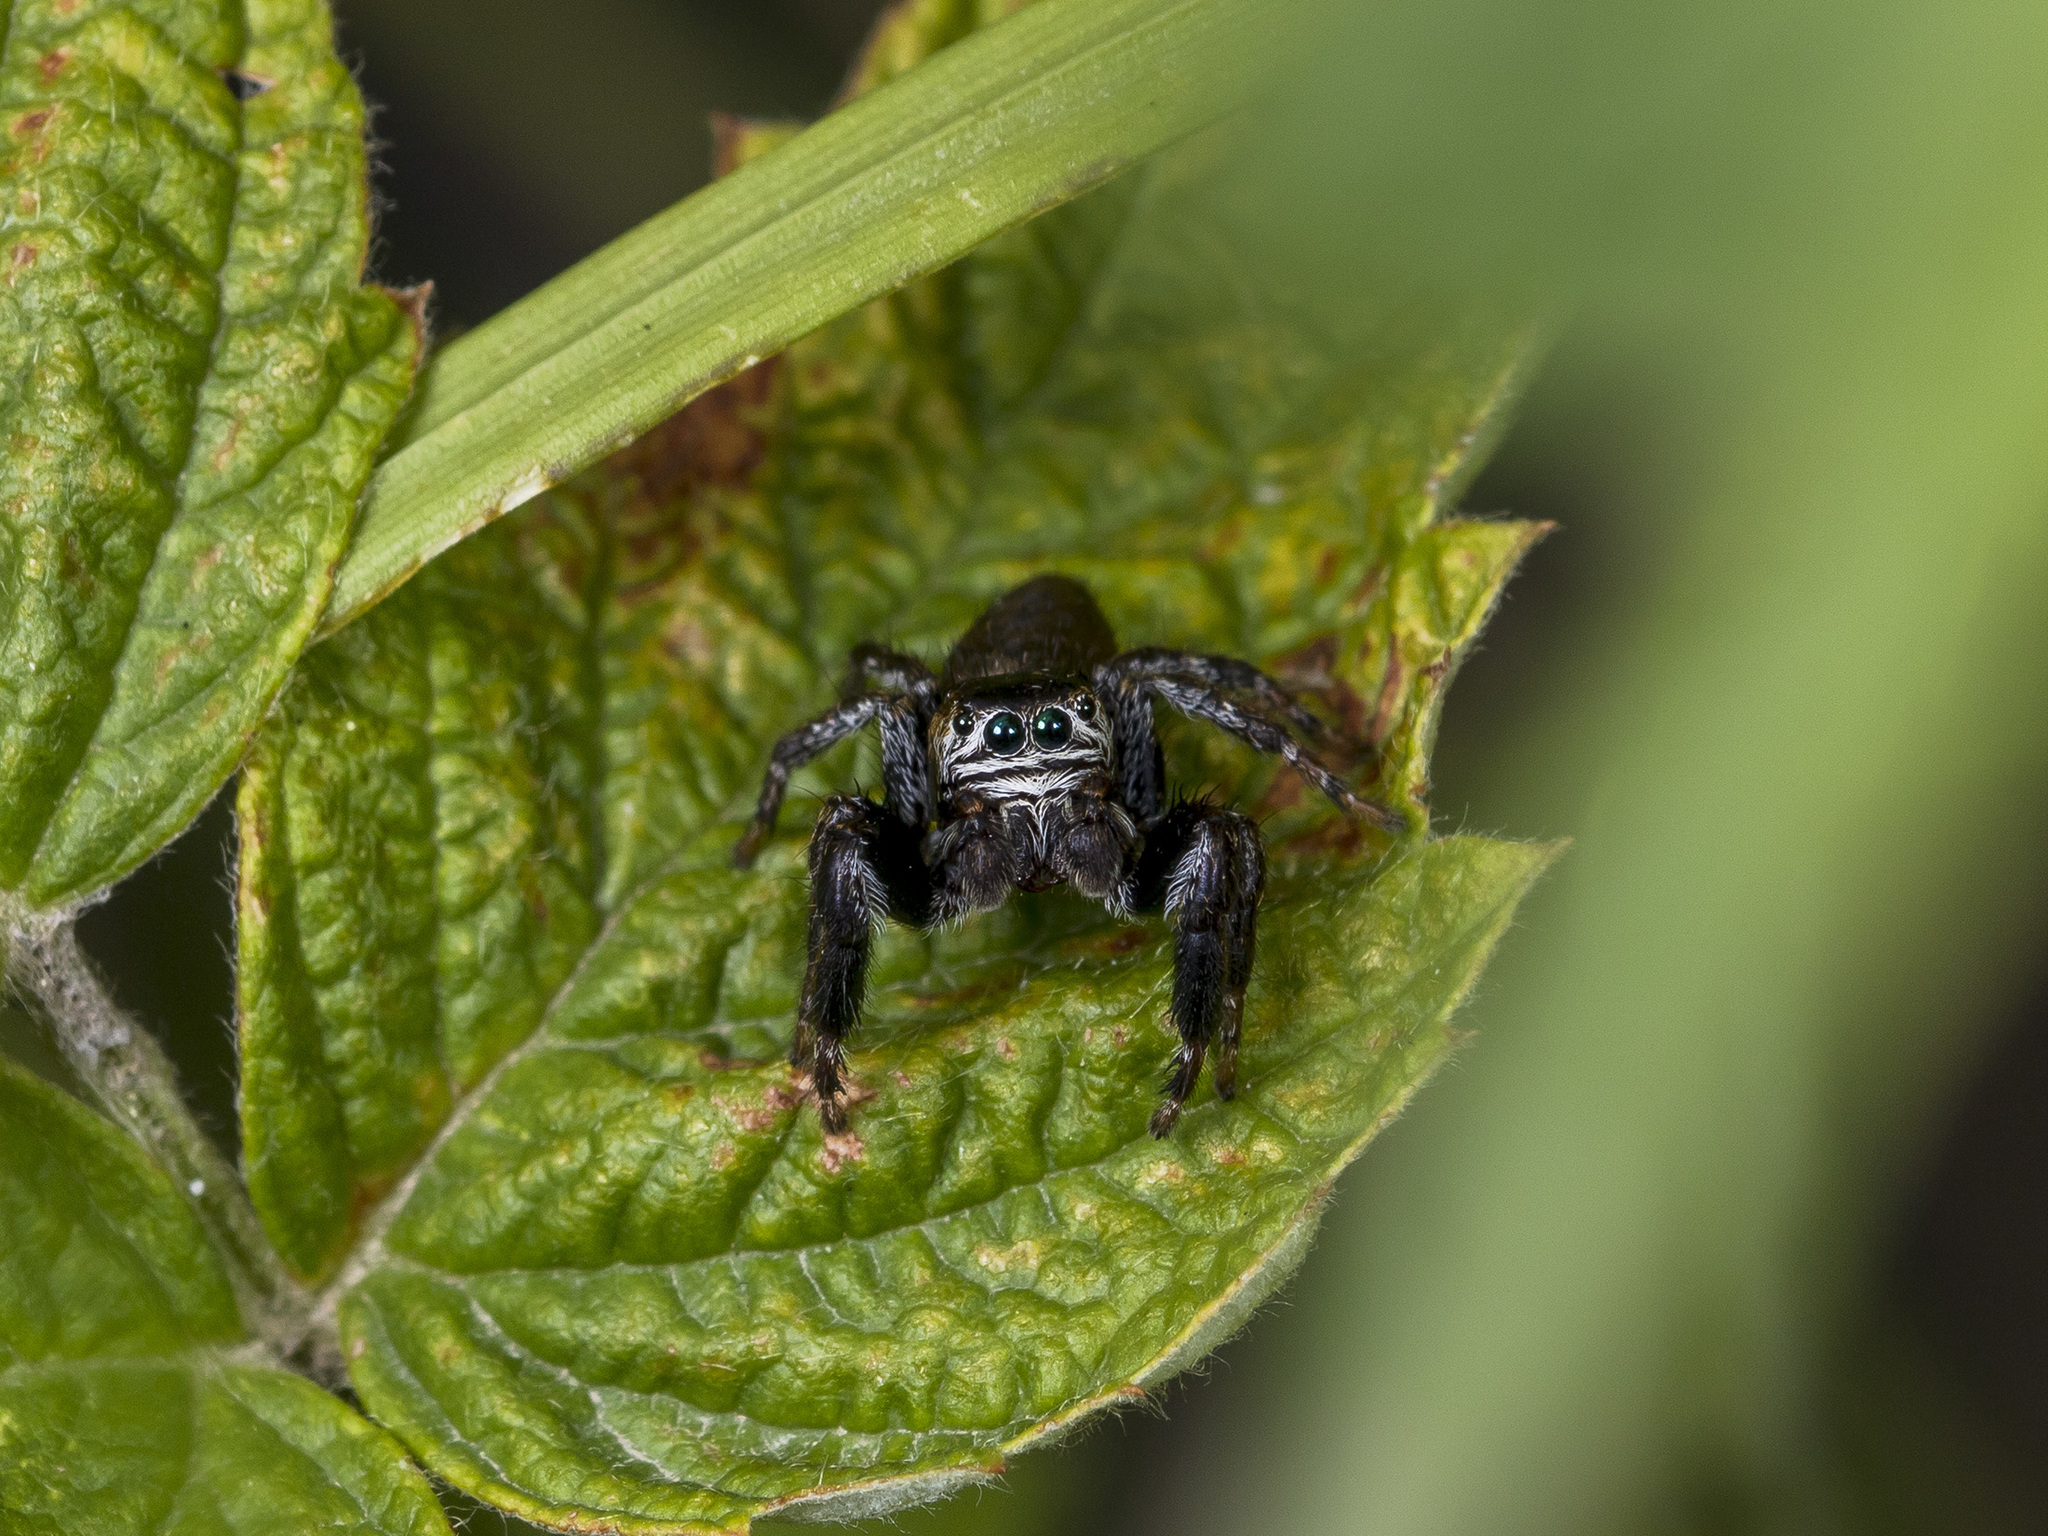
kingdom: Animalia
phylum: Arthropoda
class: Arachnida
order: Araneae
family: Salticidae
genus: Evarcha
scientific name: Evarcha arcuata
